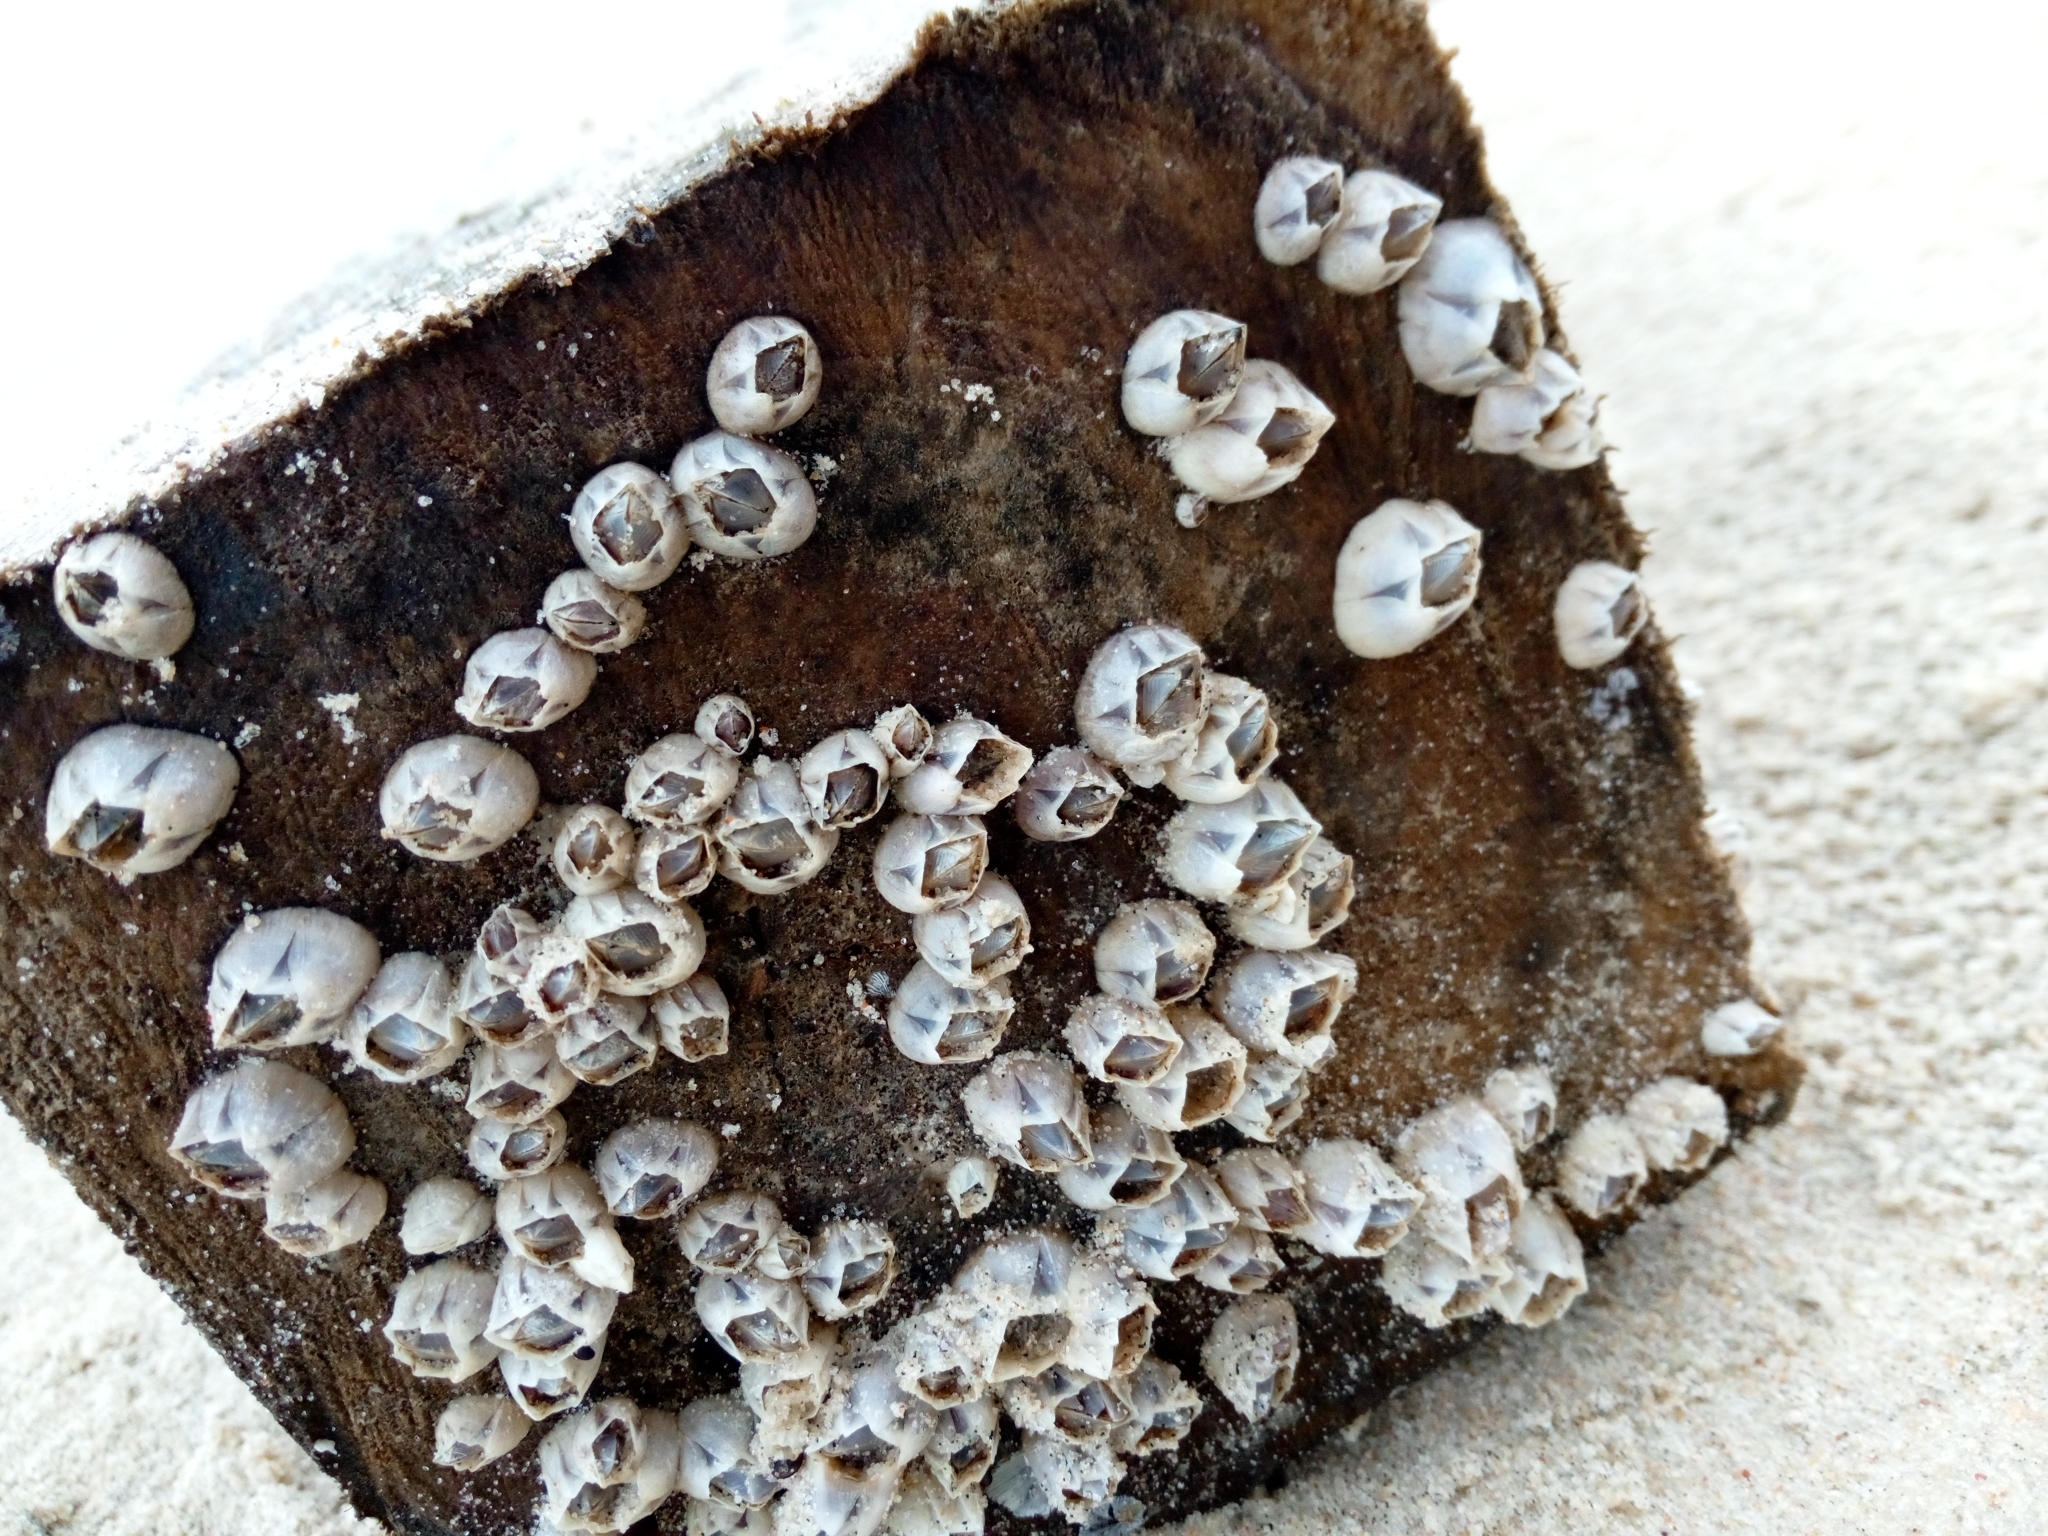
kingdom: Animalia
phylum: Arthropoda
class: Maxillopoda
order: Sessilia
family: Balanidae
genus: Amphibalanus
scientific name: Amphibalanus improvisus
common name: Bay barnacle
